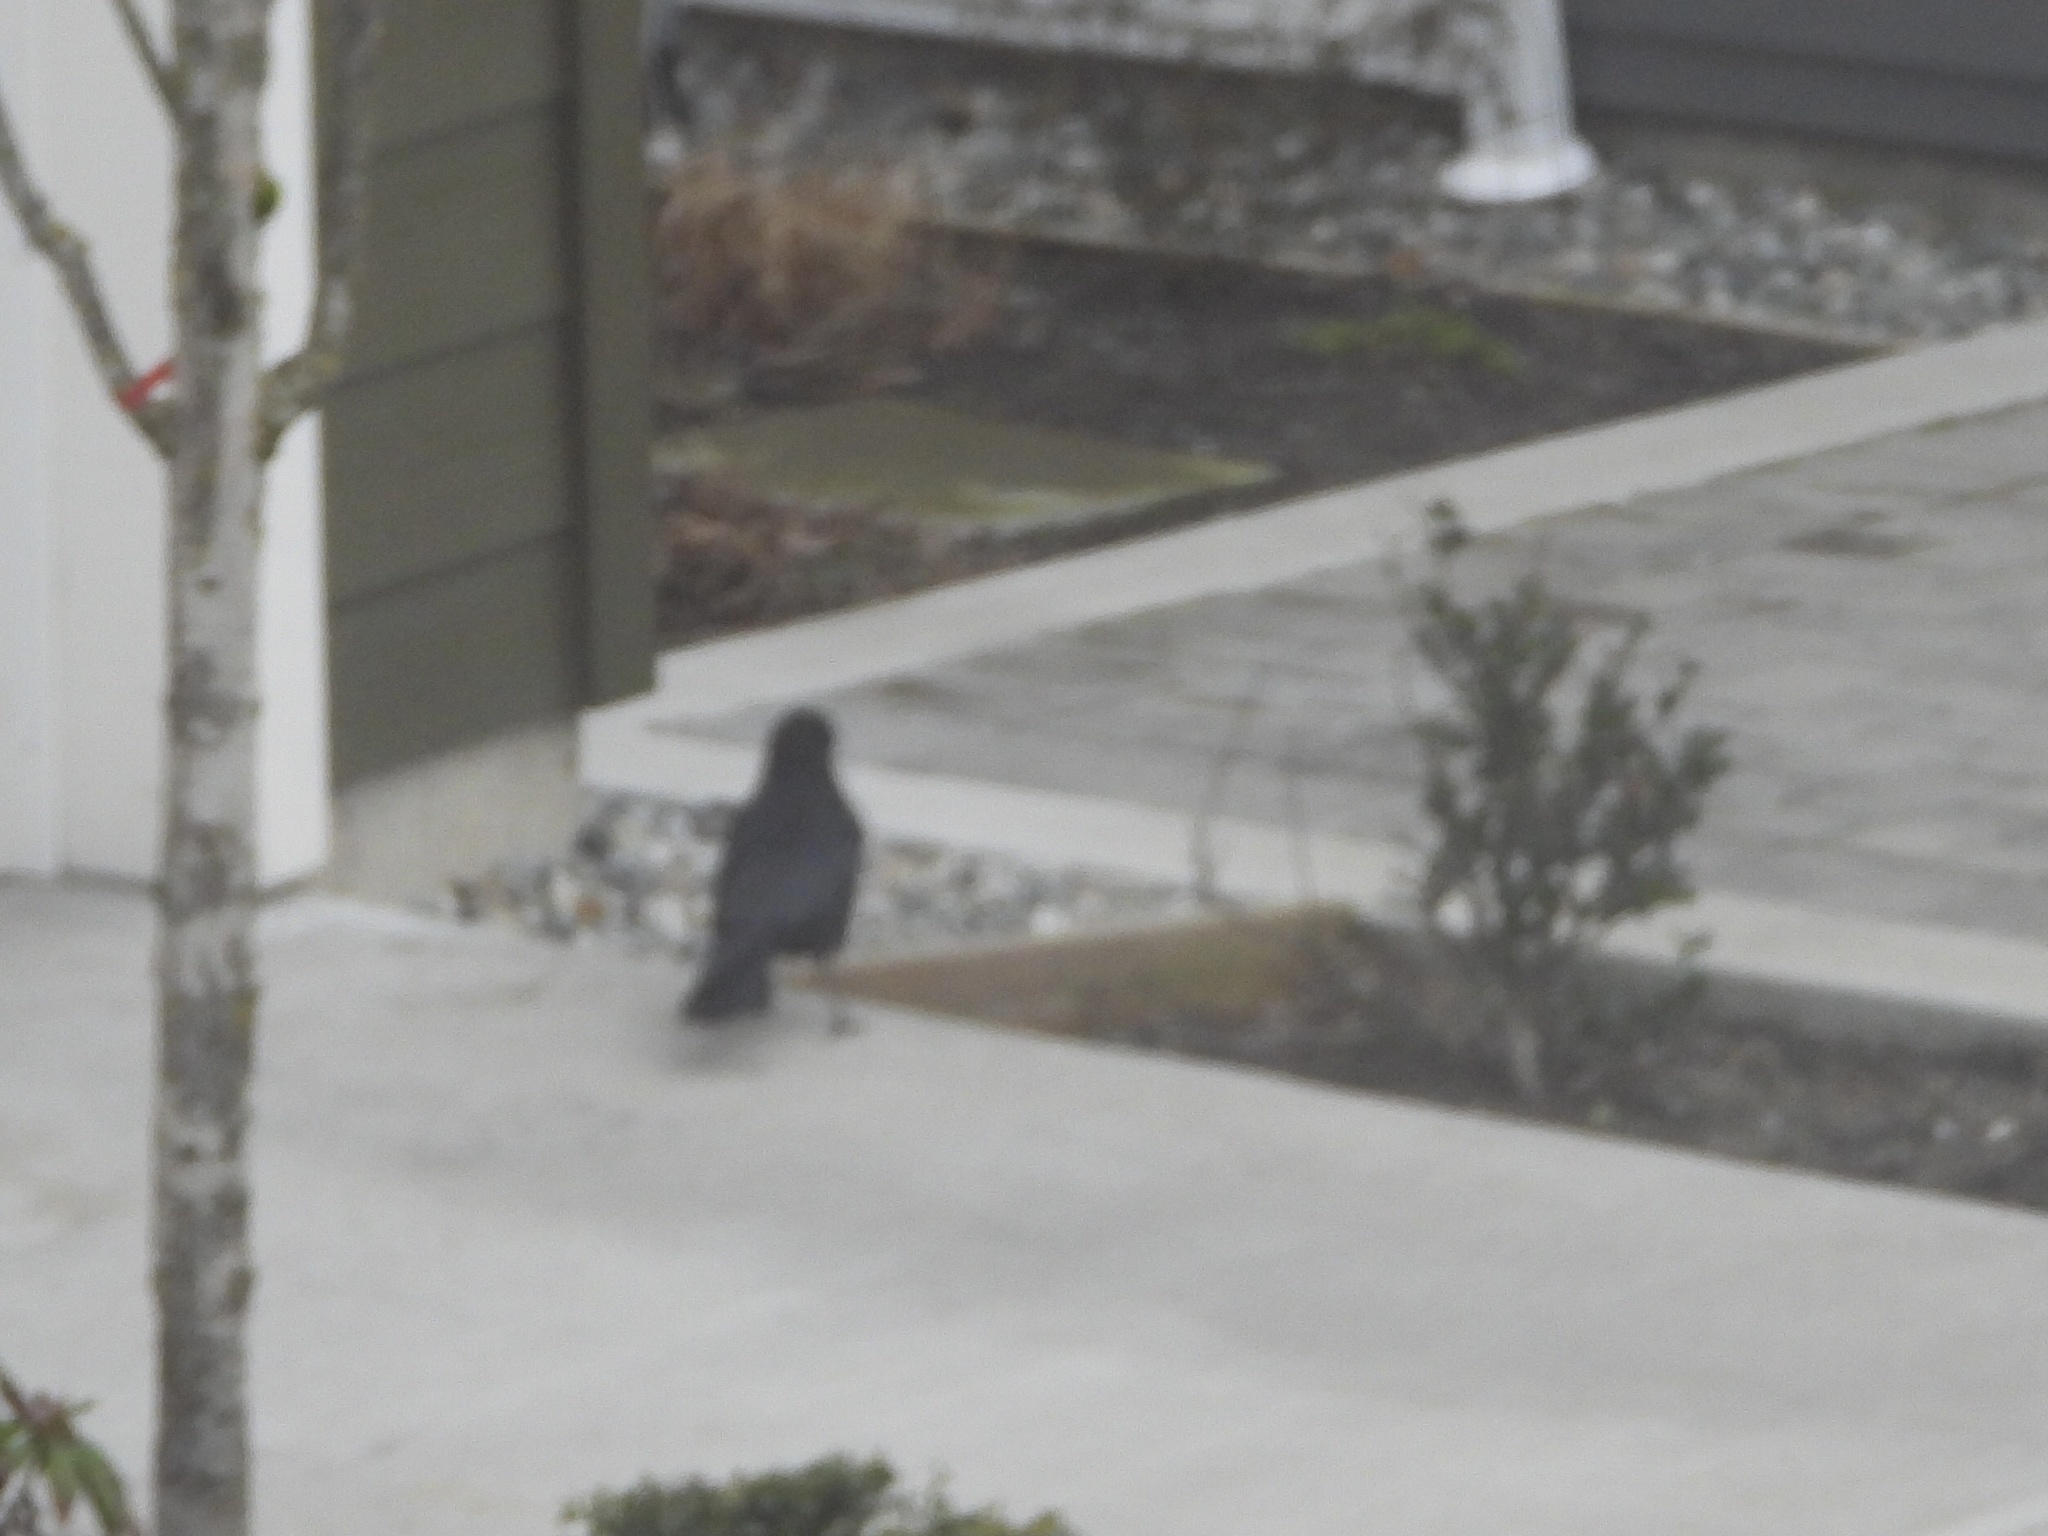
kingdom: Animalia
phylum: Chordata
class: Aves
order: Passeriformes
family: Corvidae
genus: Corvus
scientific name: Corvus brachyrhynchos
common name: American crow
